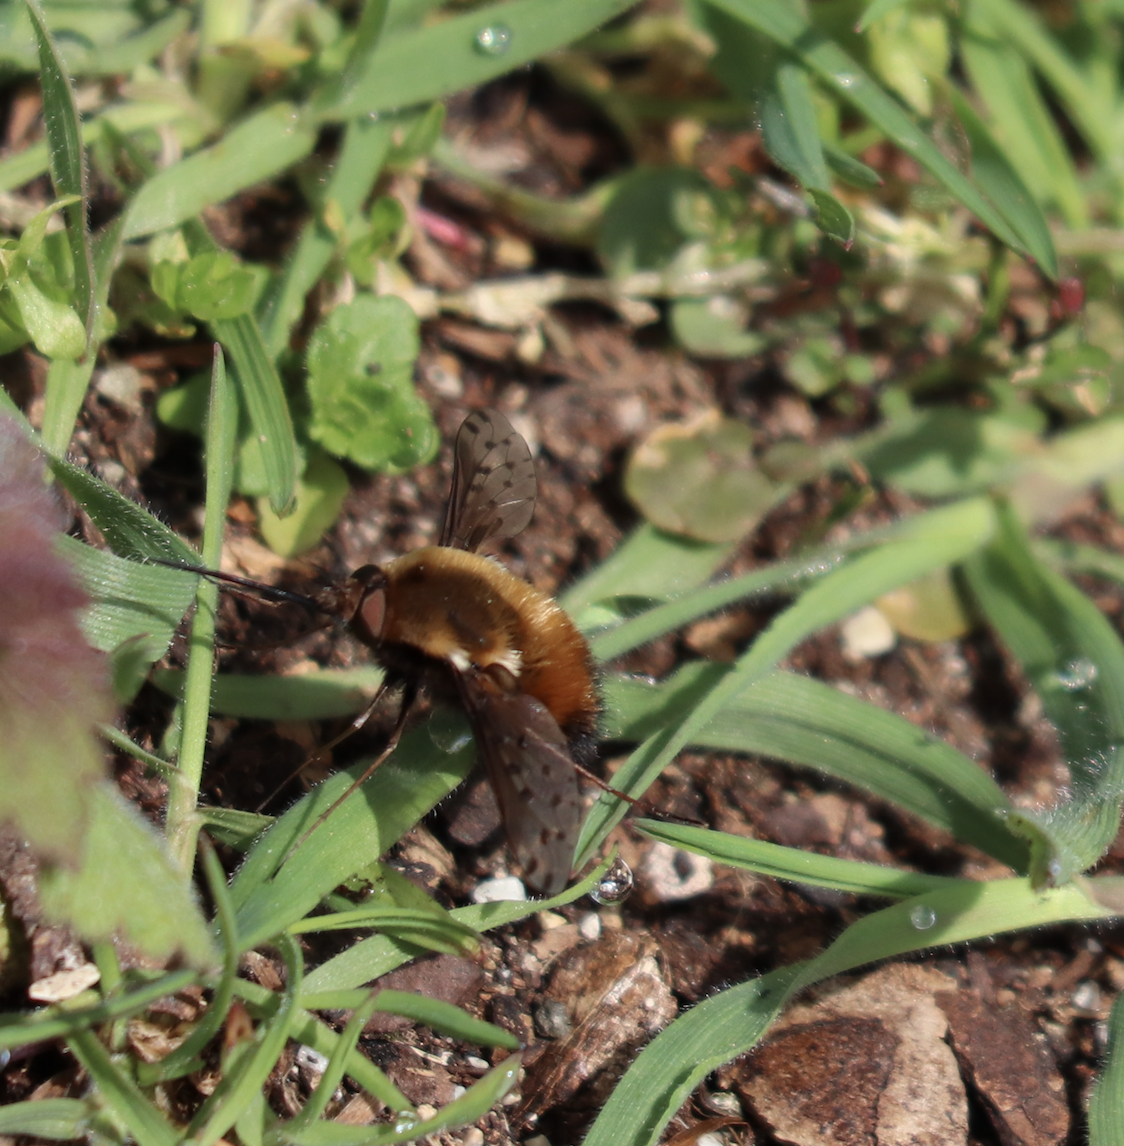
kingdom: Animalia
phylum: Arthropoda
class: Insecta
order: Diptera
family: Bombyliidae
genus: Bombylius
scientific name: Bombylius discolor
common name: Dotted bee-fly
